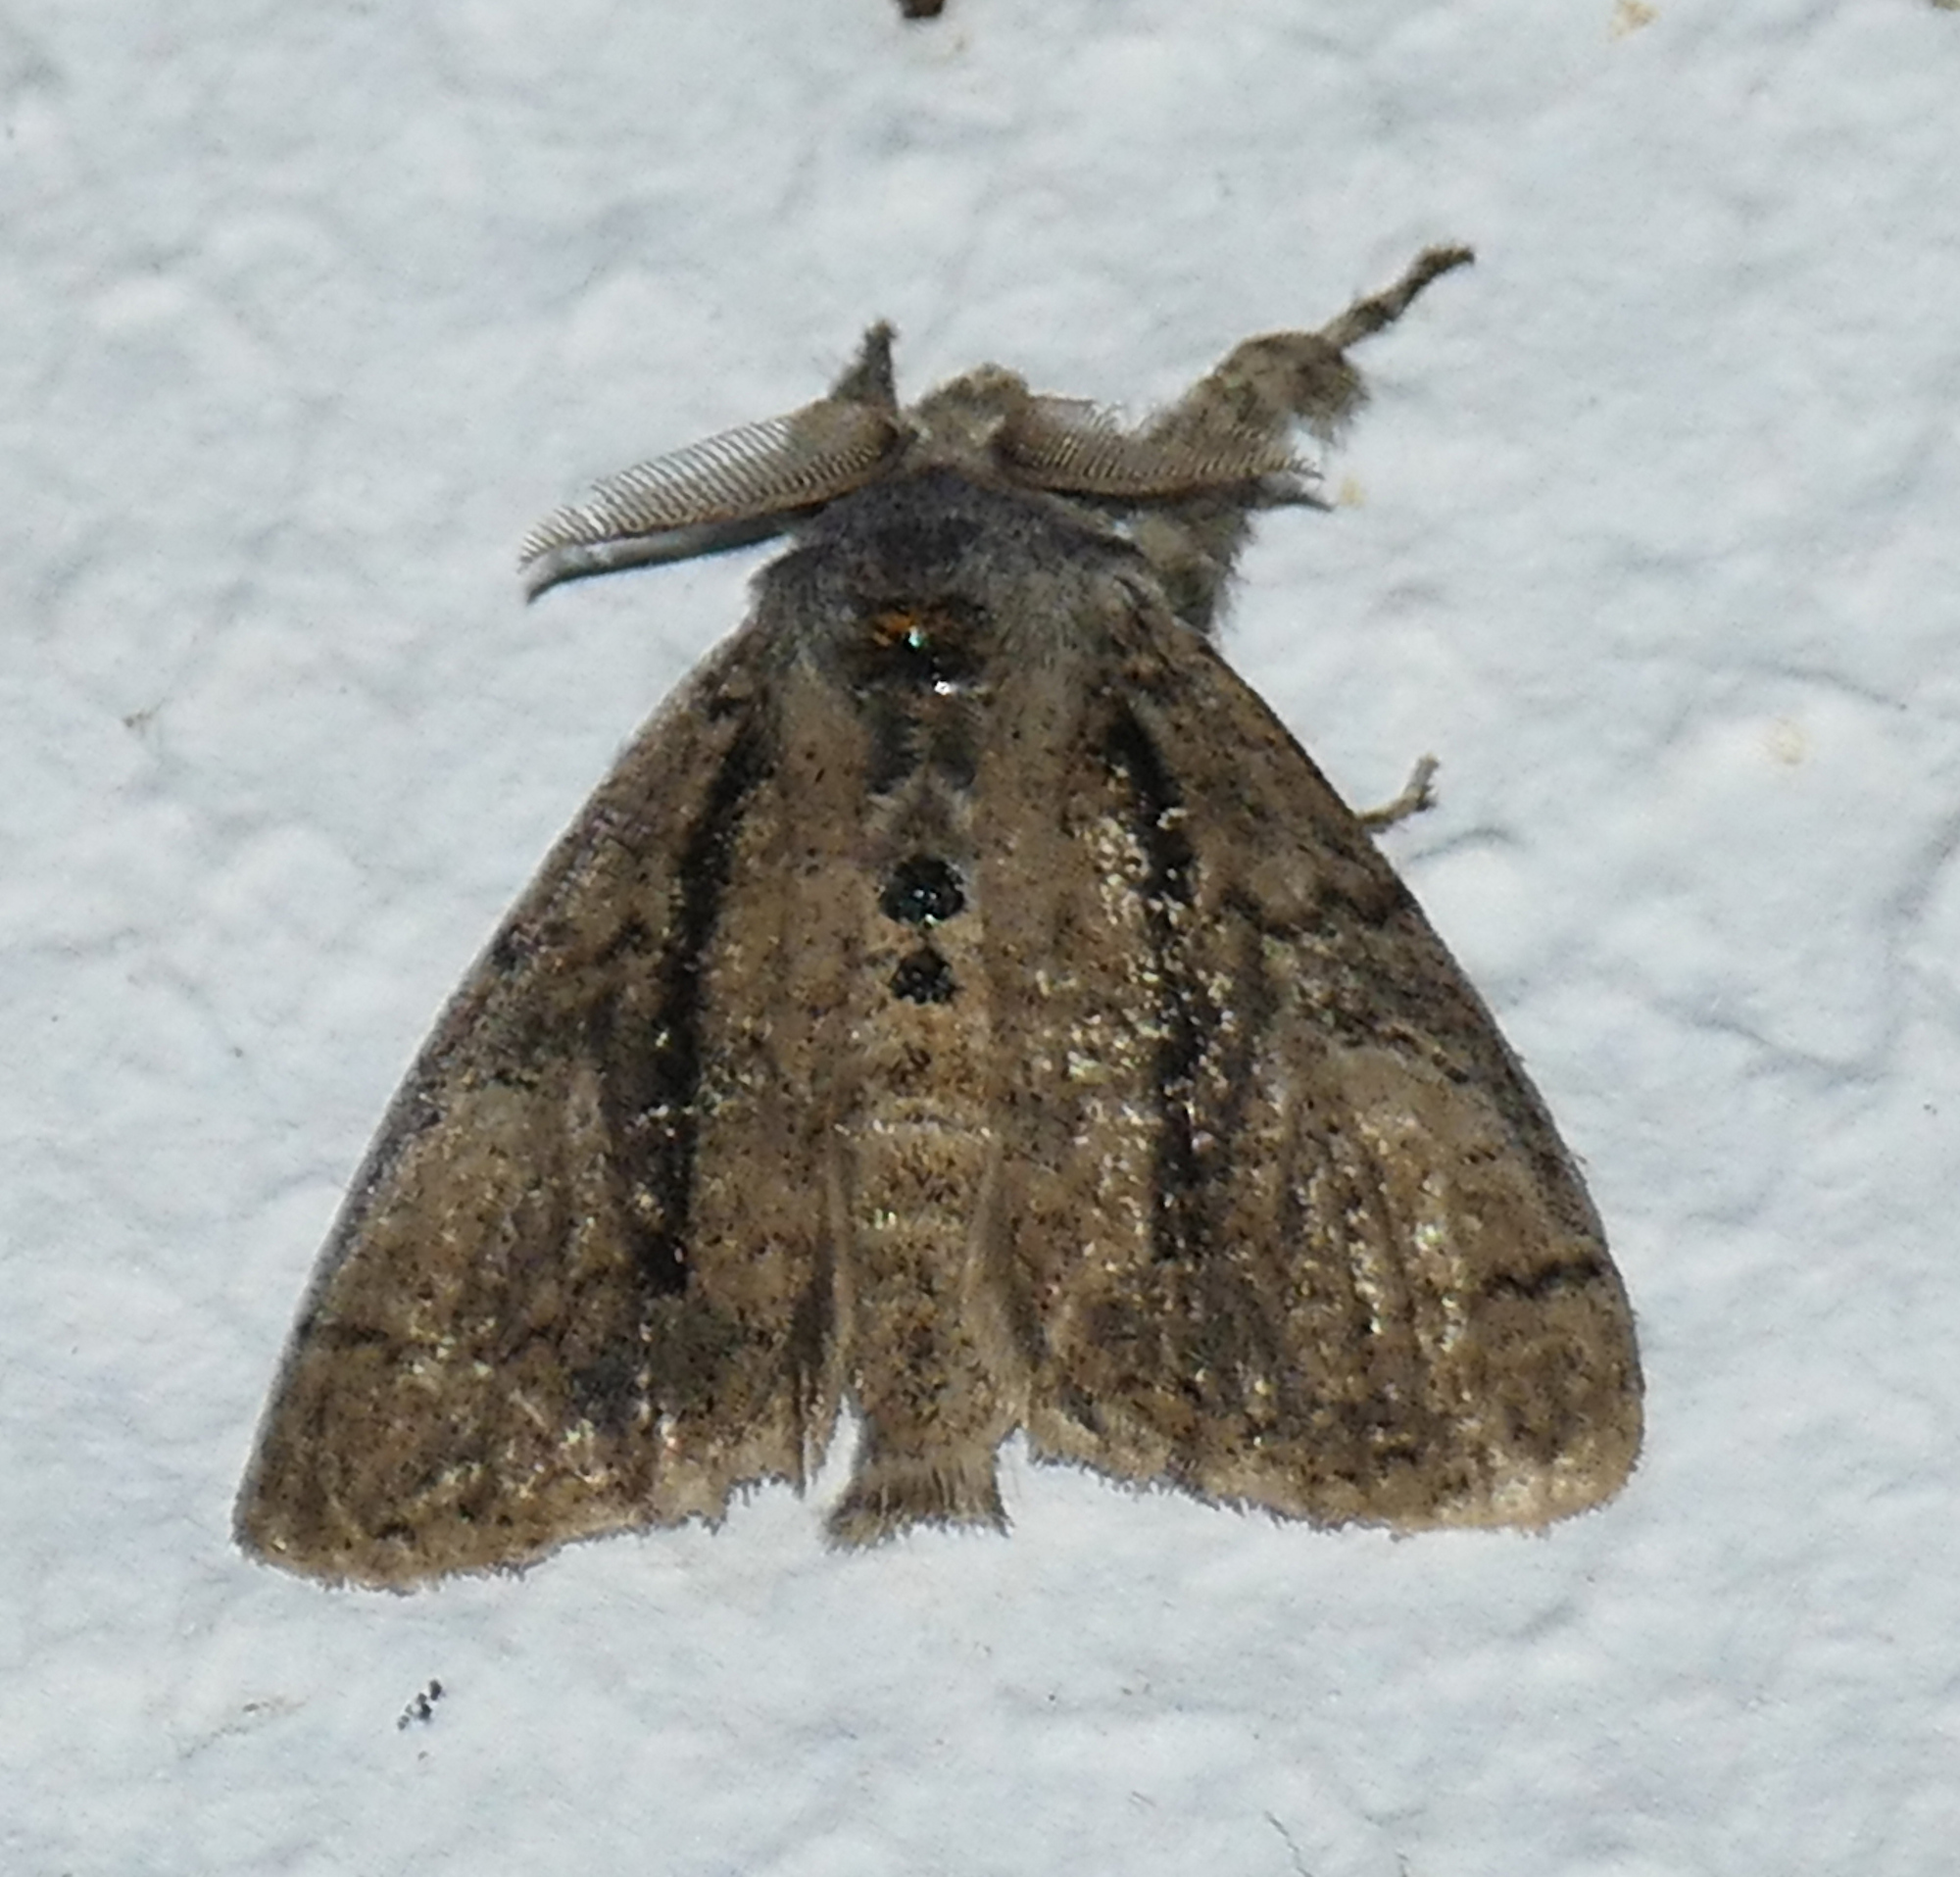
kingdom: Animalia
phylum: Arthropoda
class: Insecta
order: Lepidoptera
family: Erebidae
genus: Dasychira
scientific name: Dasychira tephra
